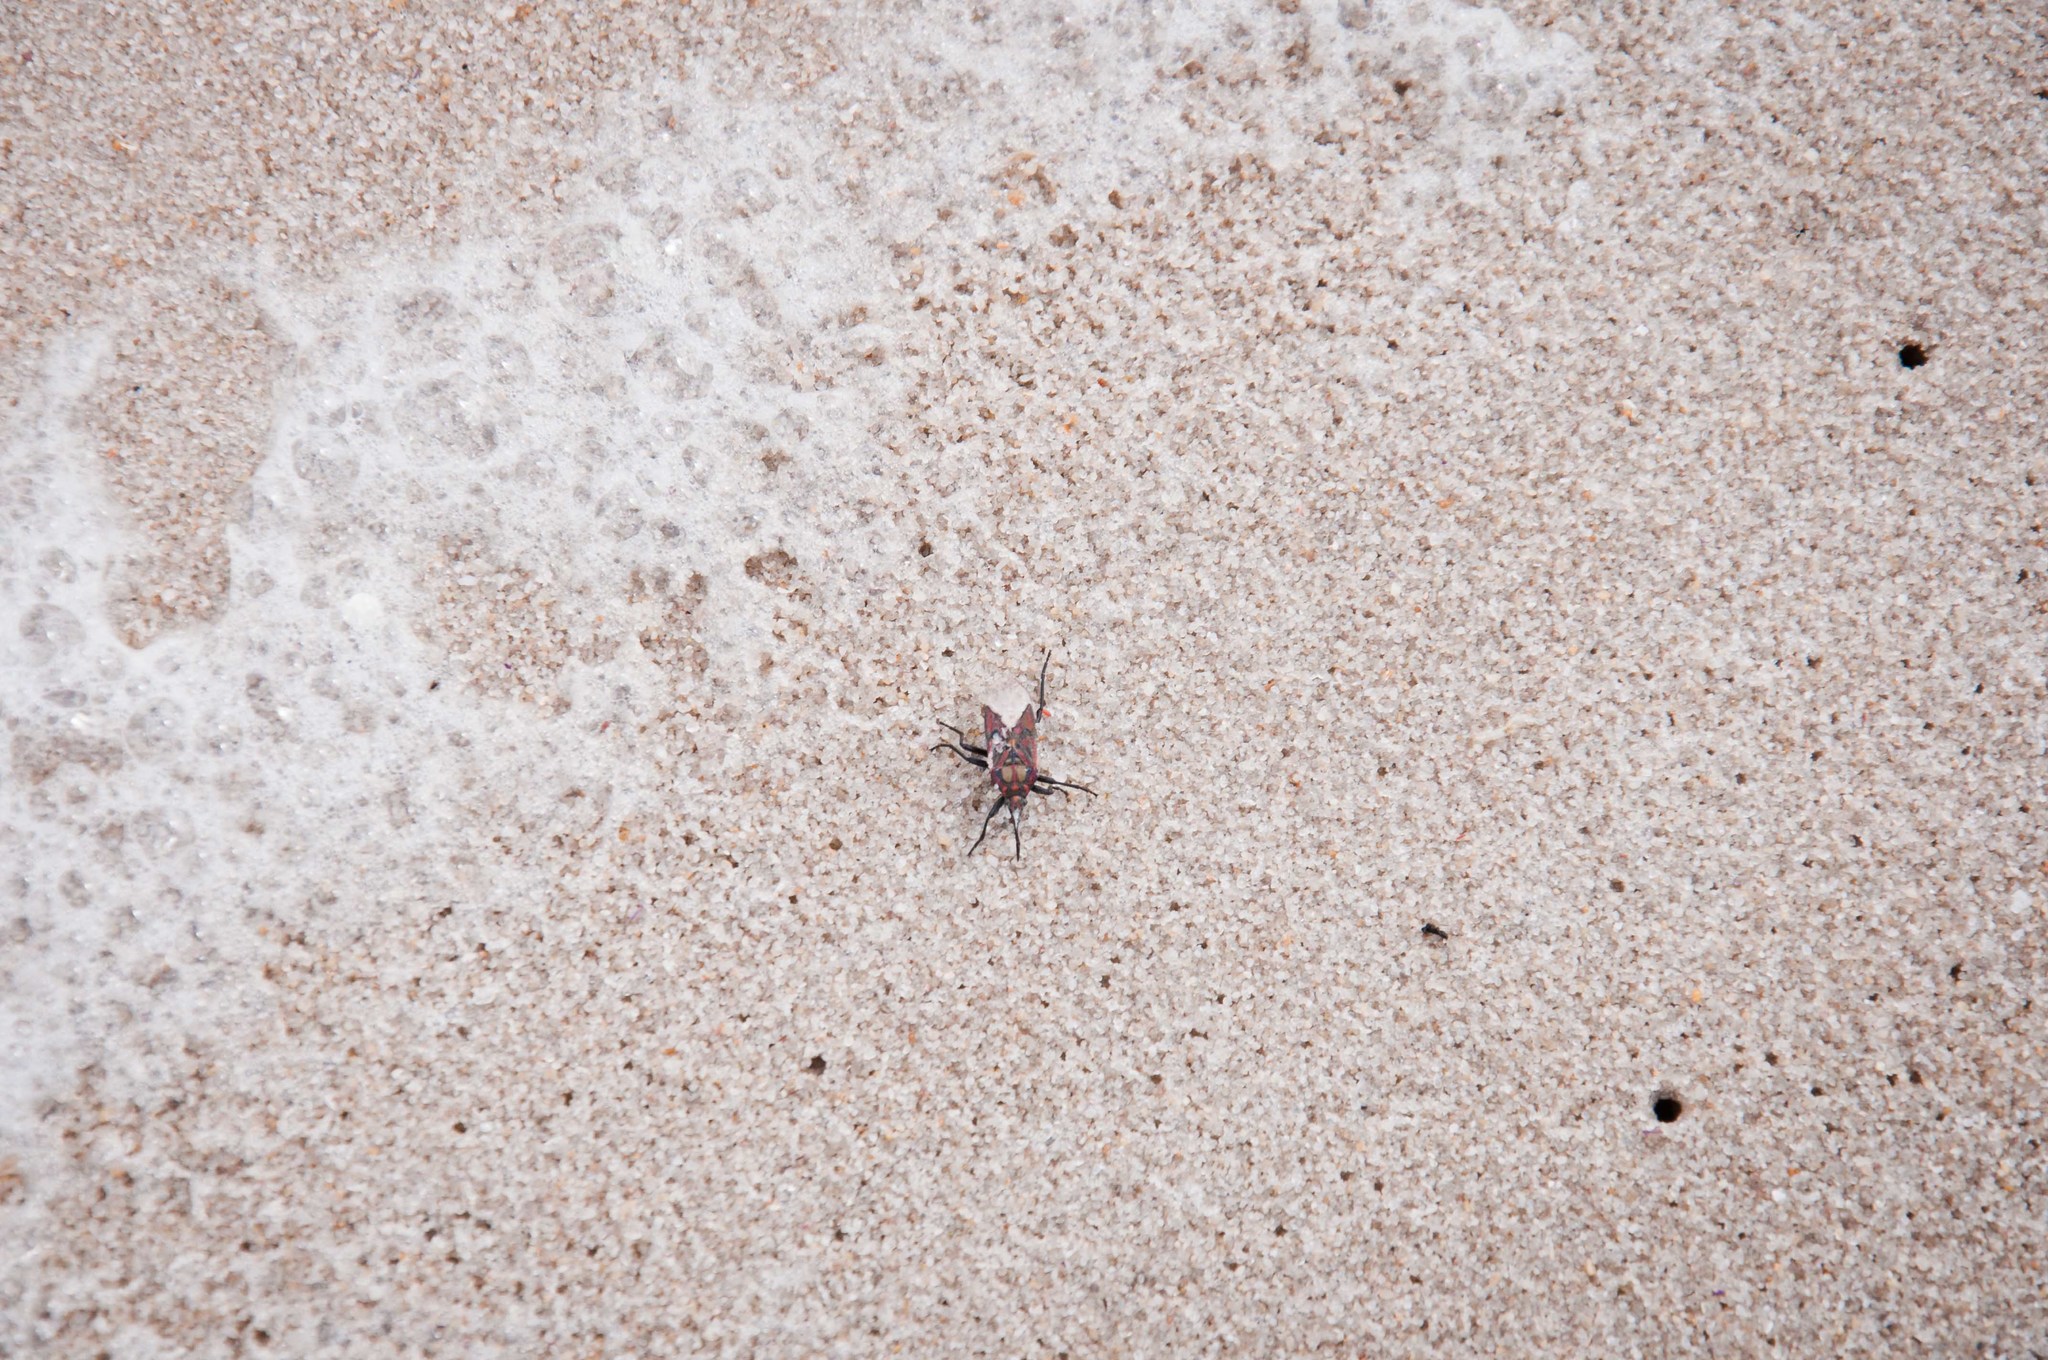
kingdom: Animalia
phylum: Arthropoda
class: Insecta
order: Hemiptera
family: Lygaeidae
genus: Spilostethus
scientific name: Spilostethus pandurus
